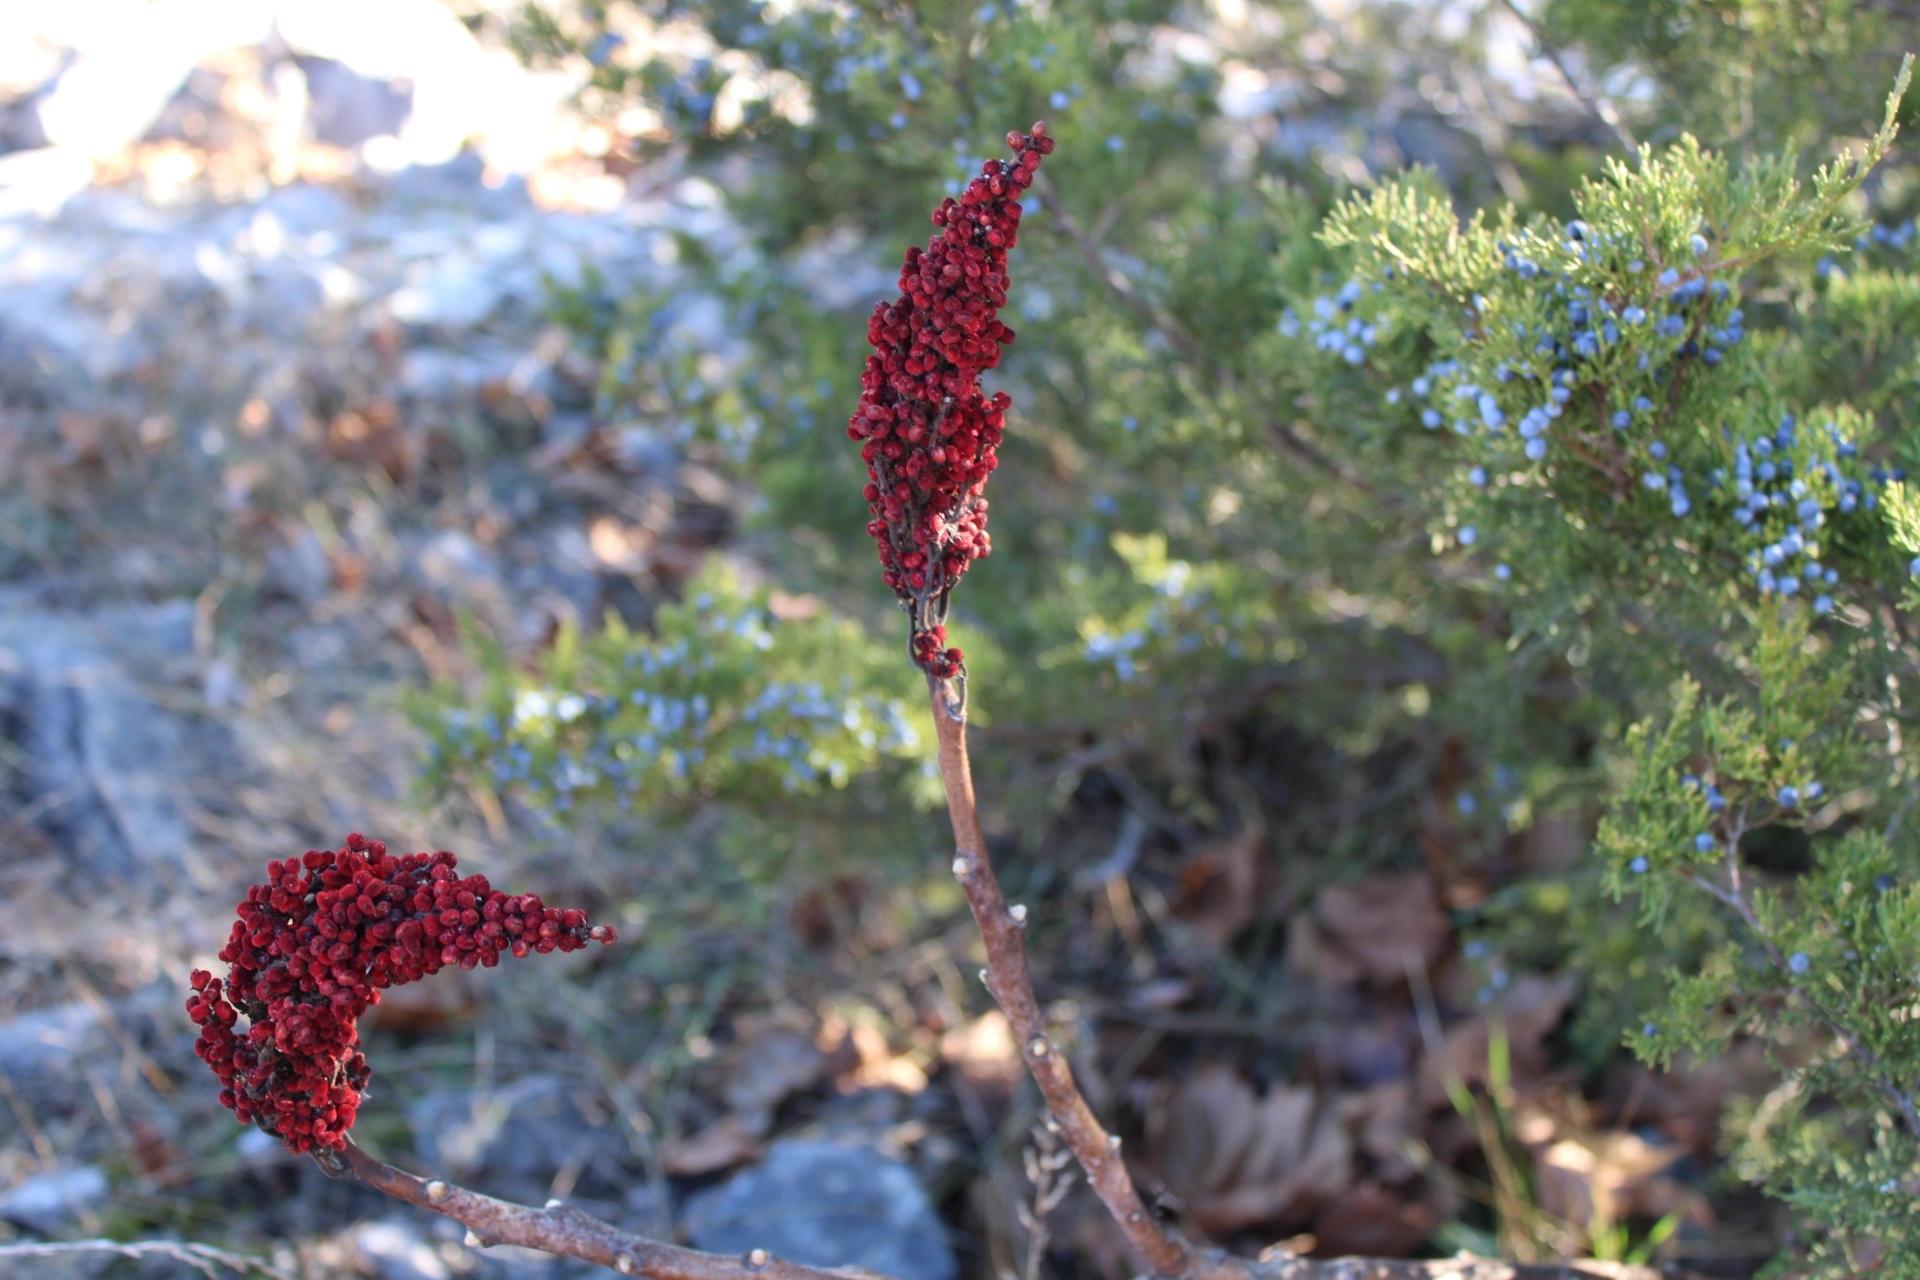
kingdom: Plantae
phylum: Tracheophyta
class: Magnoliopsida
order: Sapindales
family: Anacardiaceae
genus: Rhus
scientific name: Rhus glabra
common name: Scarlet sumac
